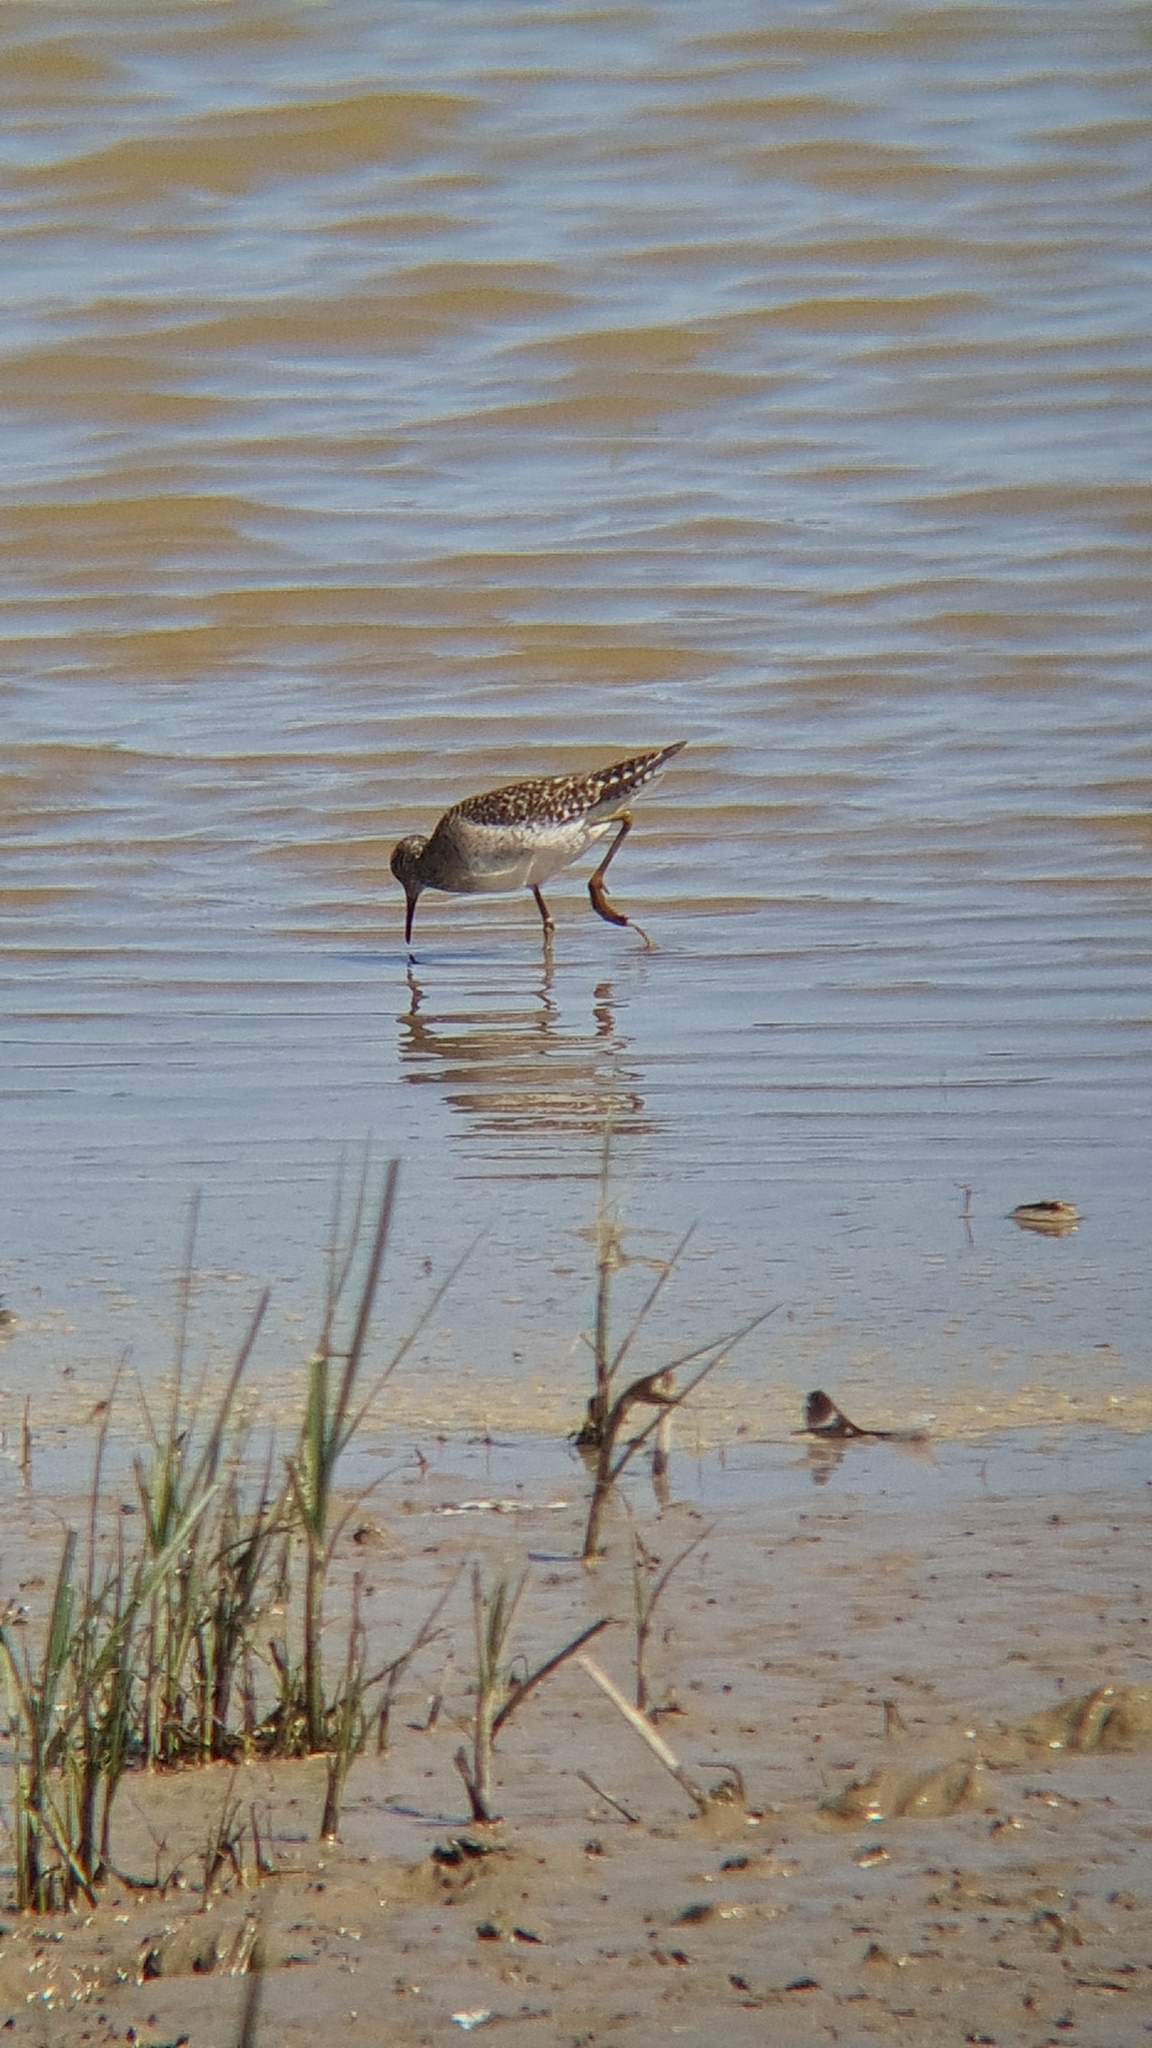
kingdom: Animalia
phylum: Chordata
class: Aves
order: Charadriiformes
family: Scolopacidae
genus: Tringa
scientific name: Tringa glareola
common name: Wood sandpiper
